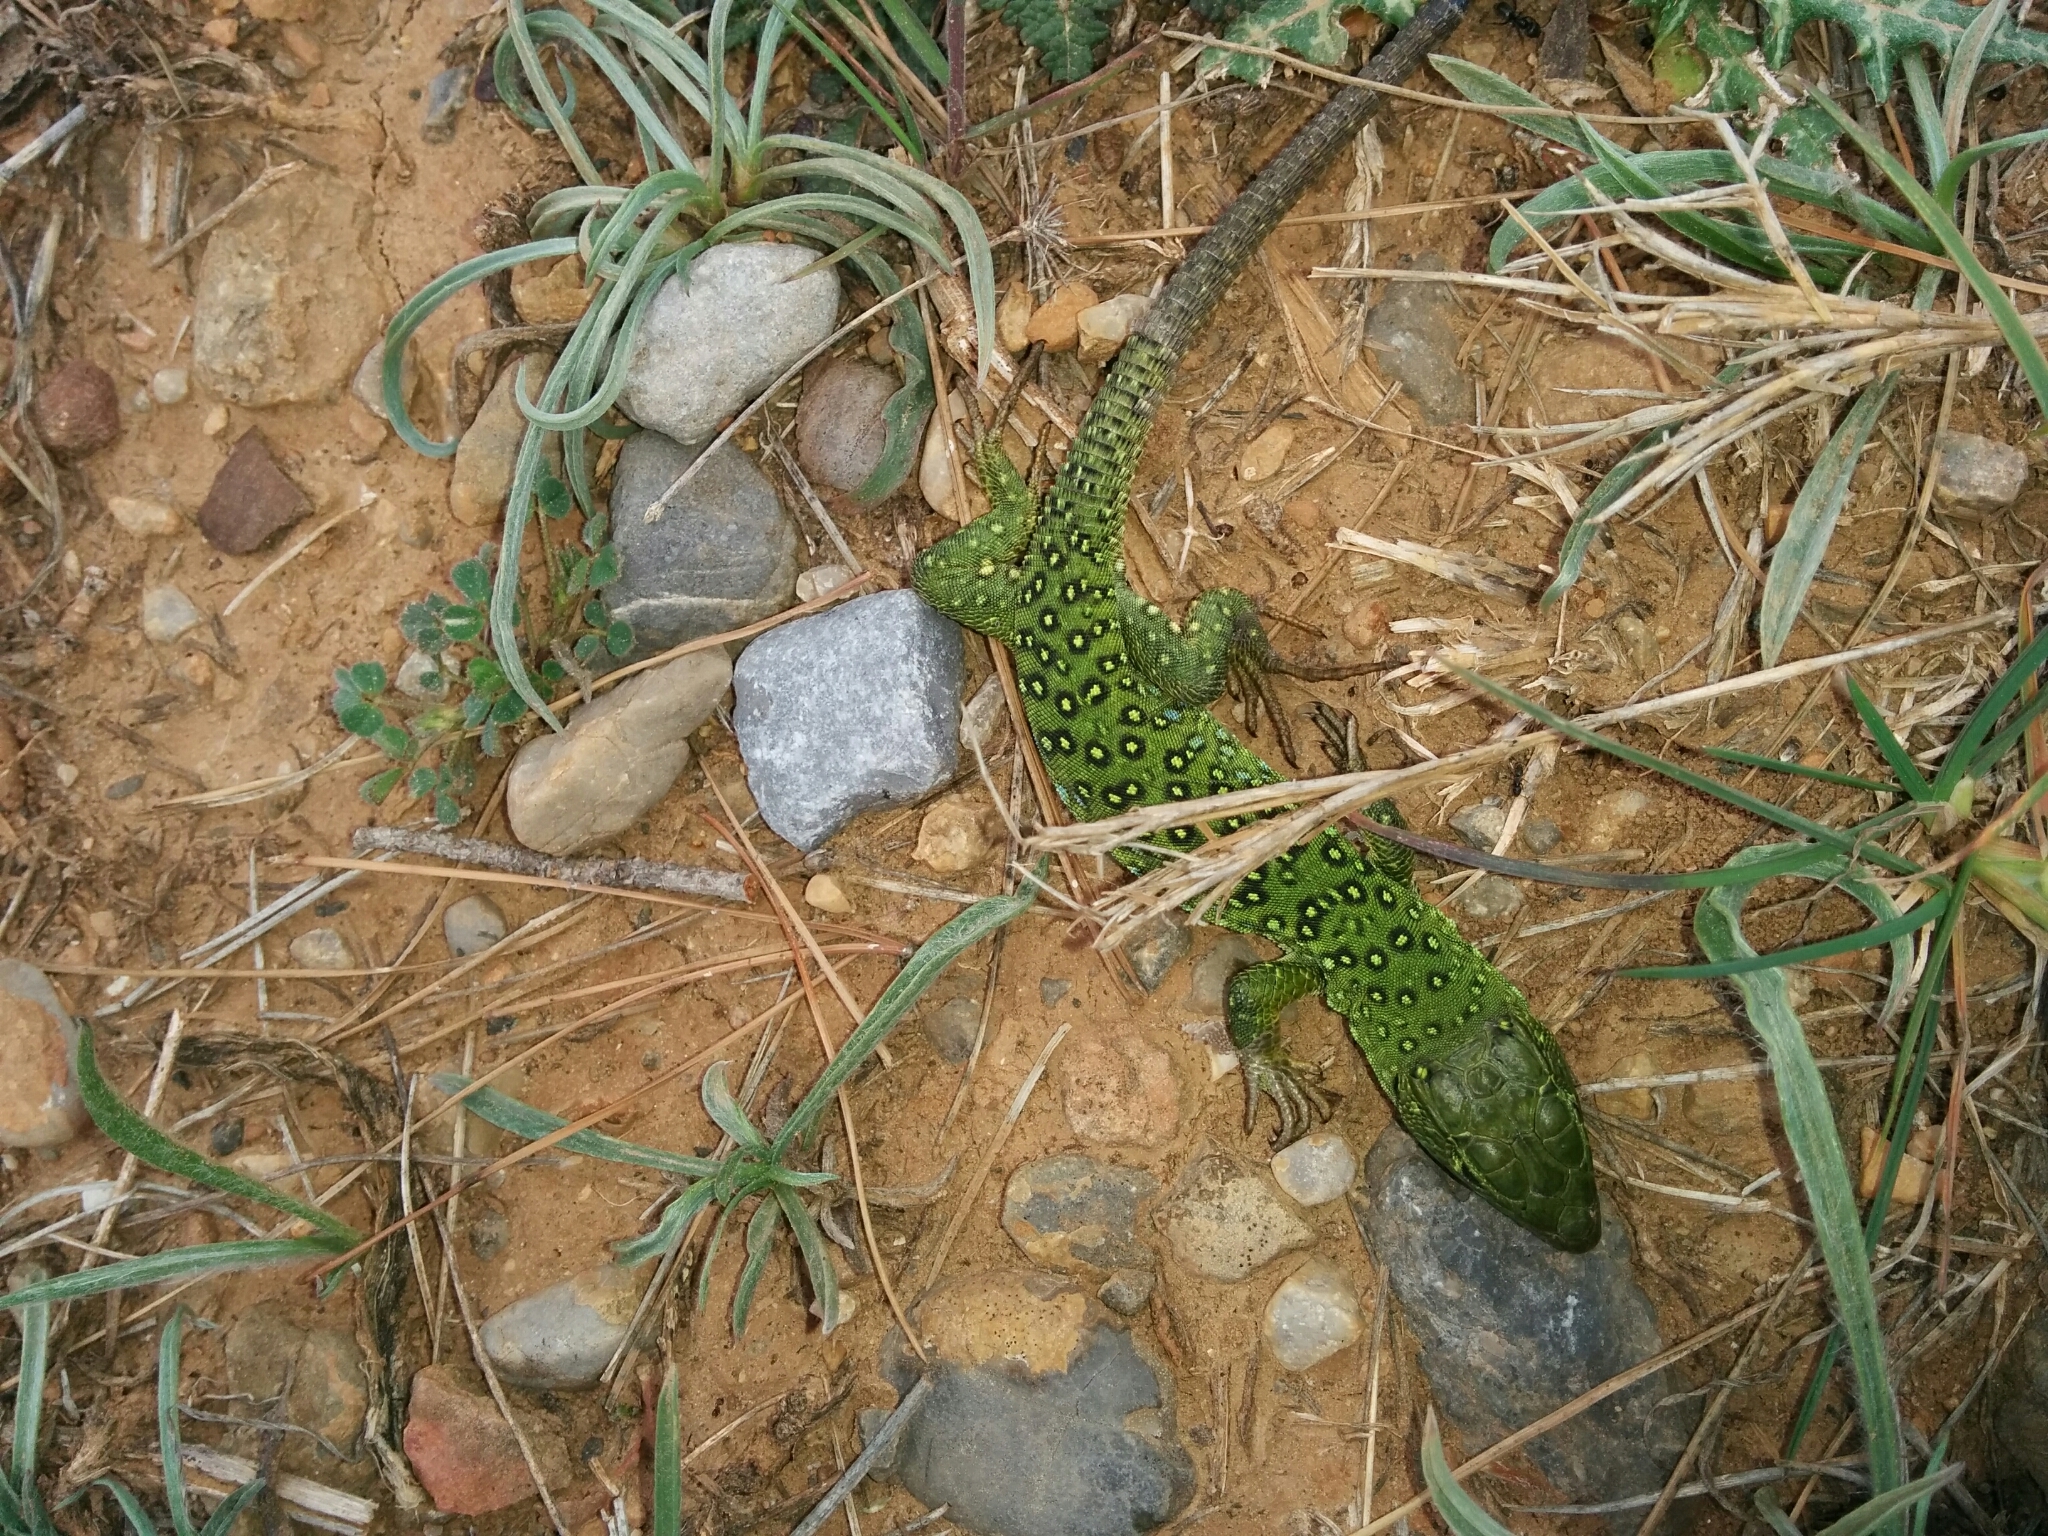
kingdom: Animalia
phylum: Chordata
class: Squamata
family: Lacertidae
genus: Timon
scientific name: Timon lepidus
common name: Ocellated lizard
